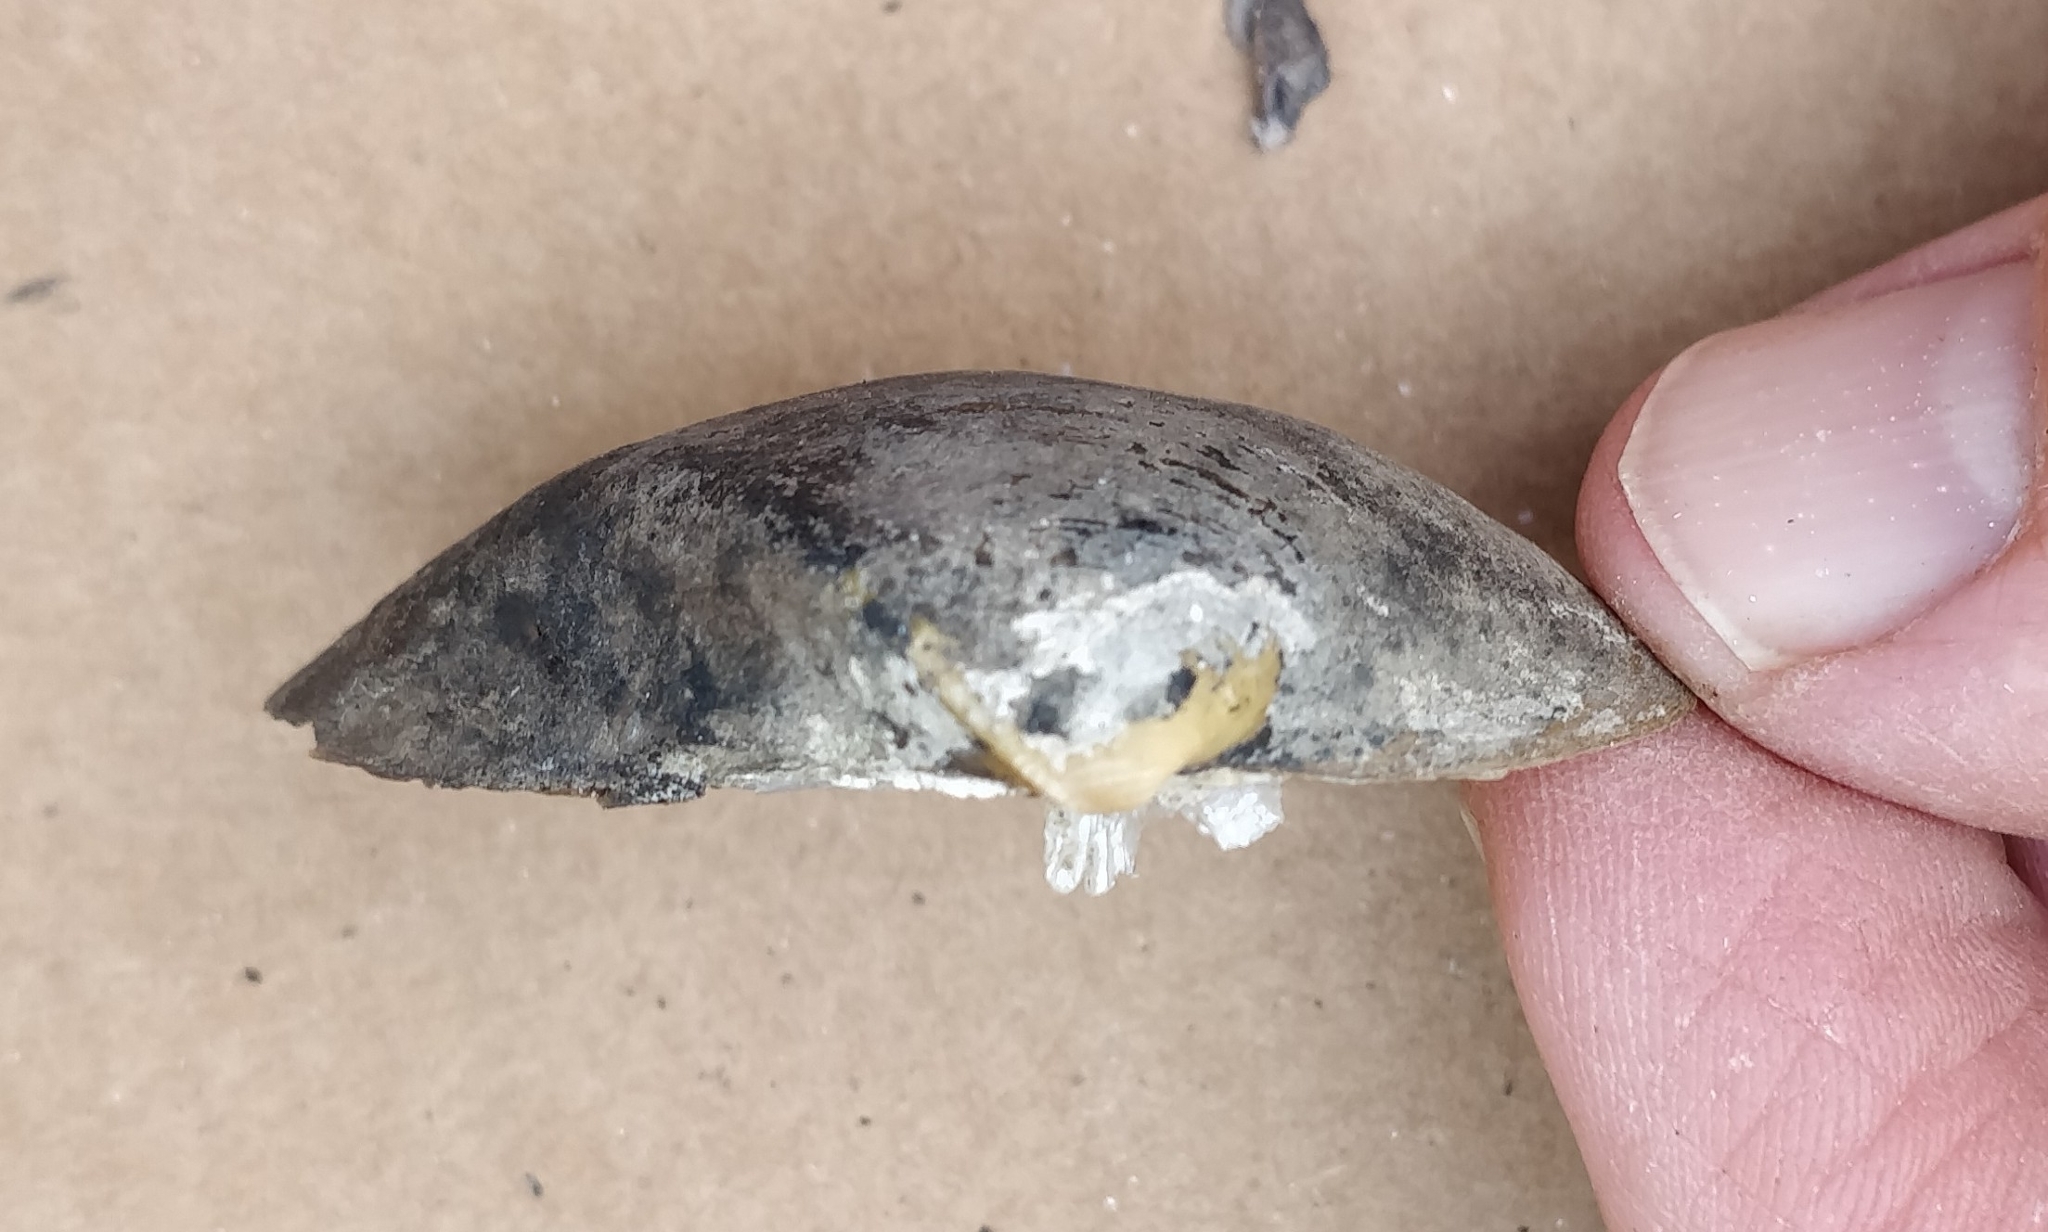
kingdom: Animalia
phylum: Mollusca
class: Bivalvia
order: Unionida
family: Unionidae
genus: Truncilla
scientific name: Truncilla truncata
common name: Deertoe
